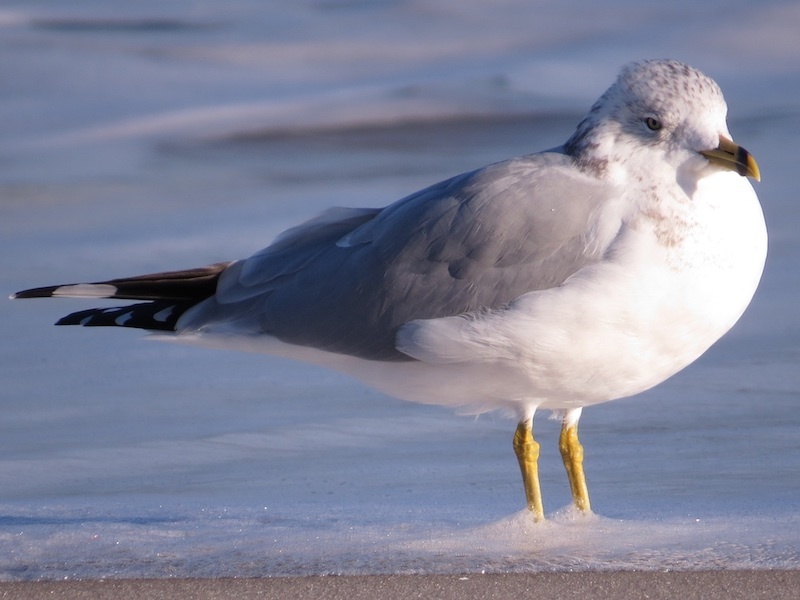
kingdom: Animalia
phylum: Chordata
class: Aves
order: Charadriiformes
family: Laridae
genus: Larus
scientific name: Larus delawarensis
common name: Ring-billed gull
